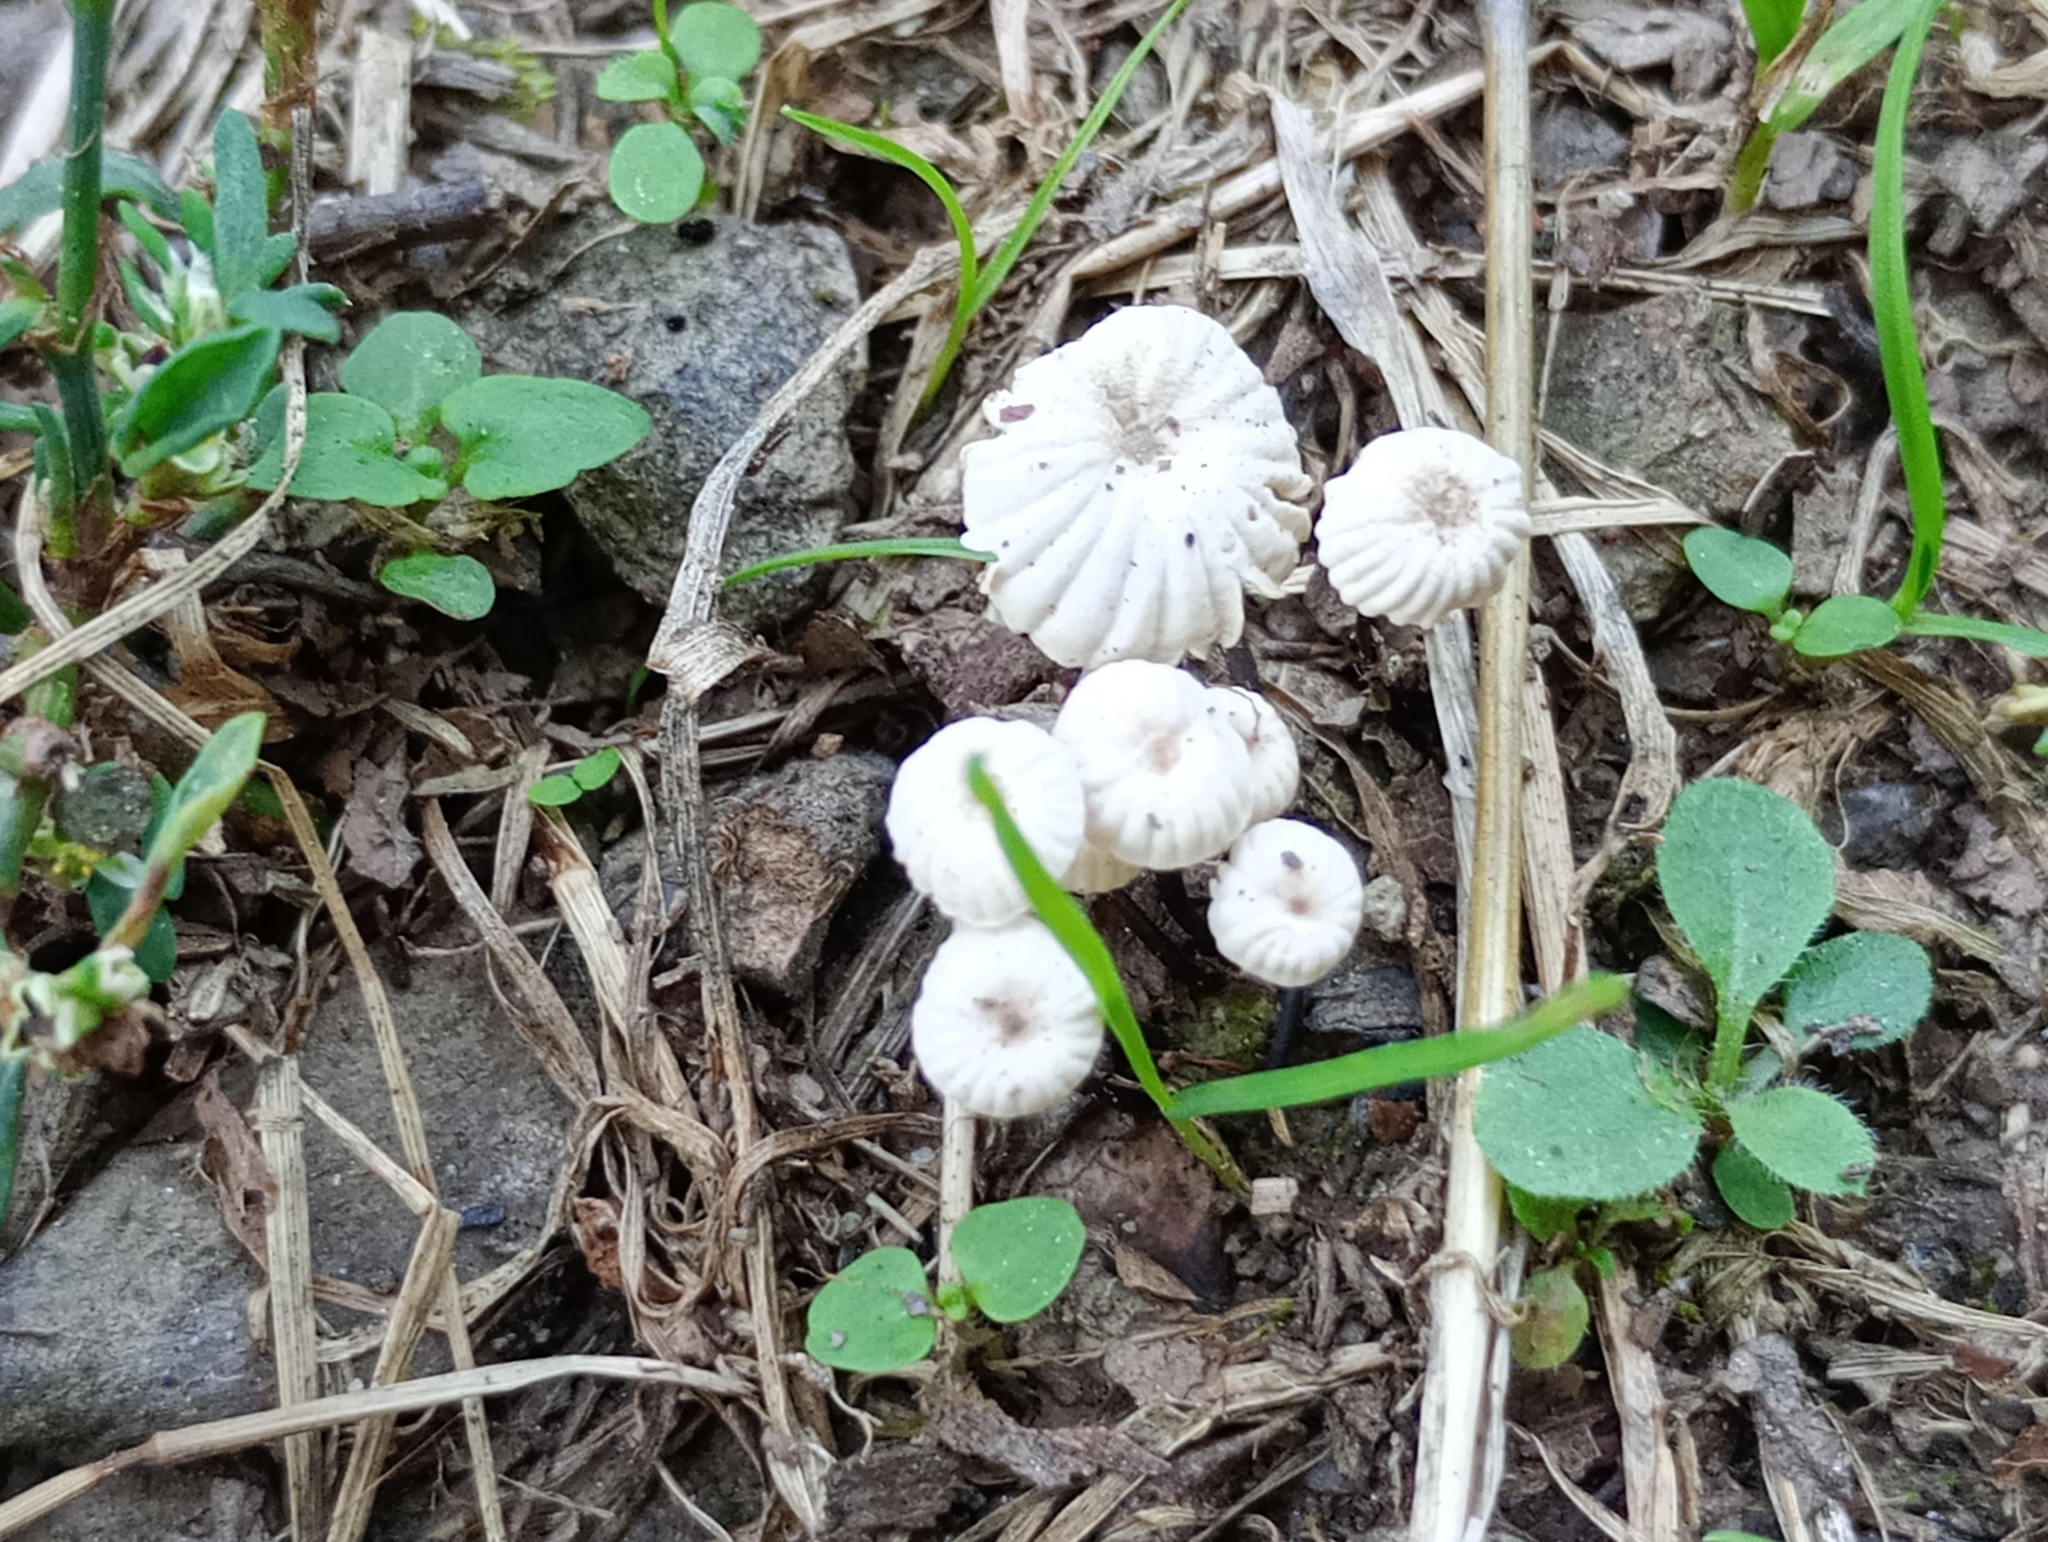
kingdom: Fungi
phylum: Basidiomycota
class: Agaricomycetes
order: Agaricales
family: Marasmiaceae
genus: Marasmius
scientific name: Marasmius rotula
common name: Collared parachute
